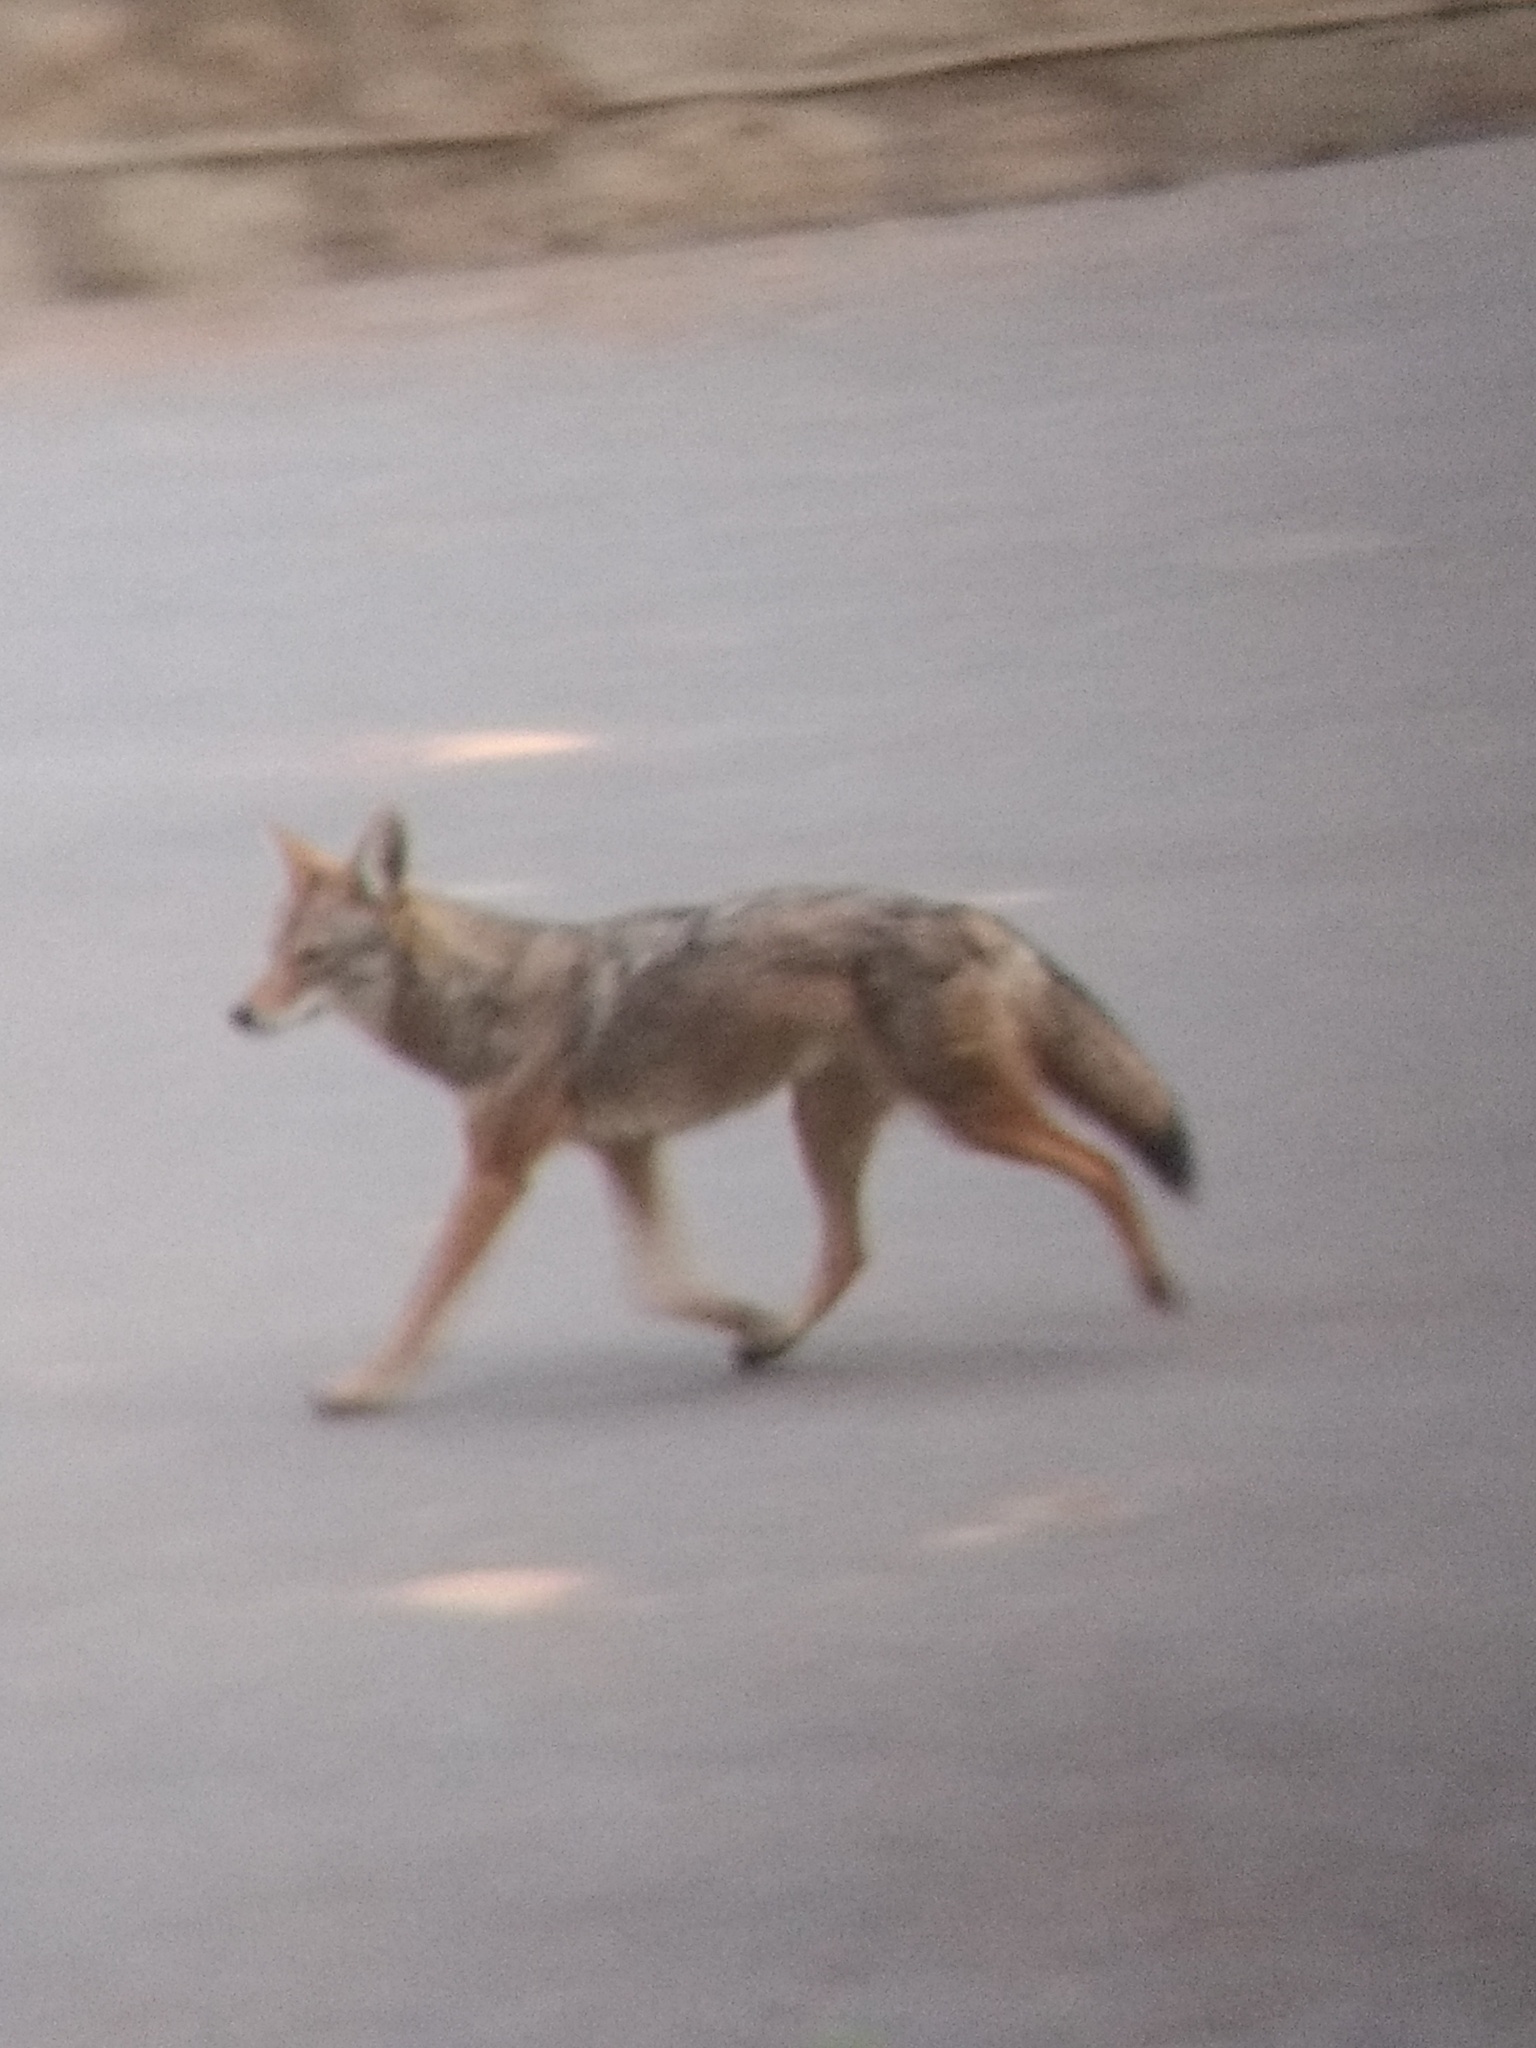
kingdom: Animalia
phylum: Chordata
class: Mammalia
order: Carnivora
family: Canidae
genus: Canis
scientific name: Canis latrans
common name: Coyote
